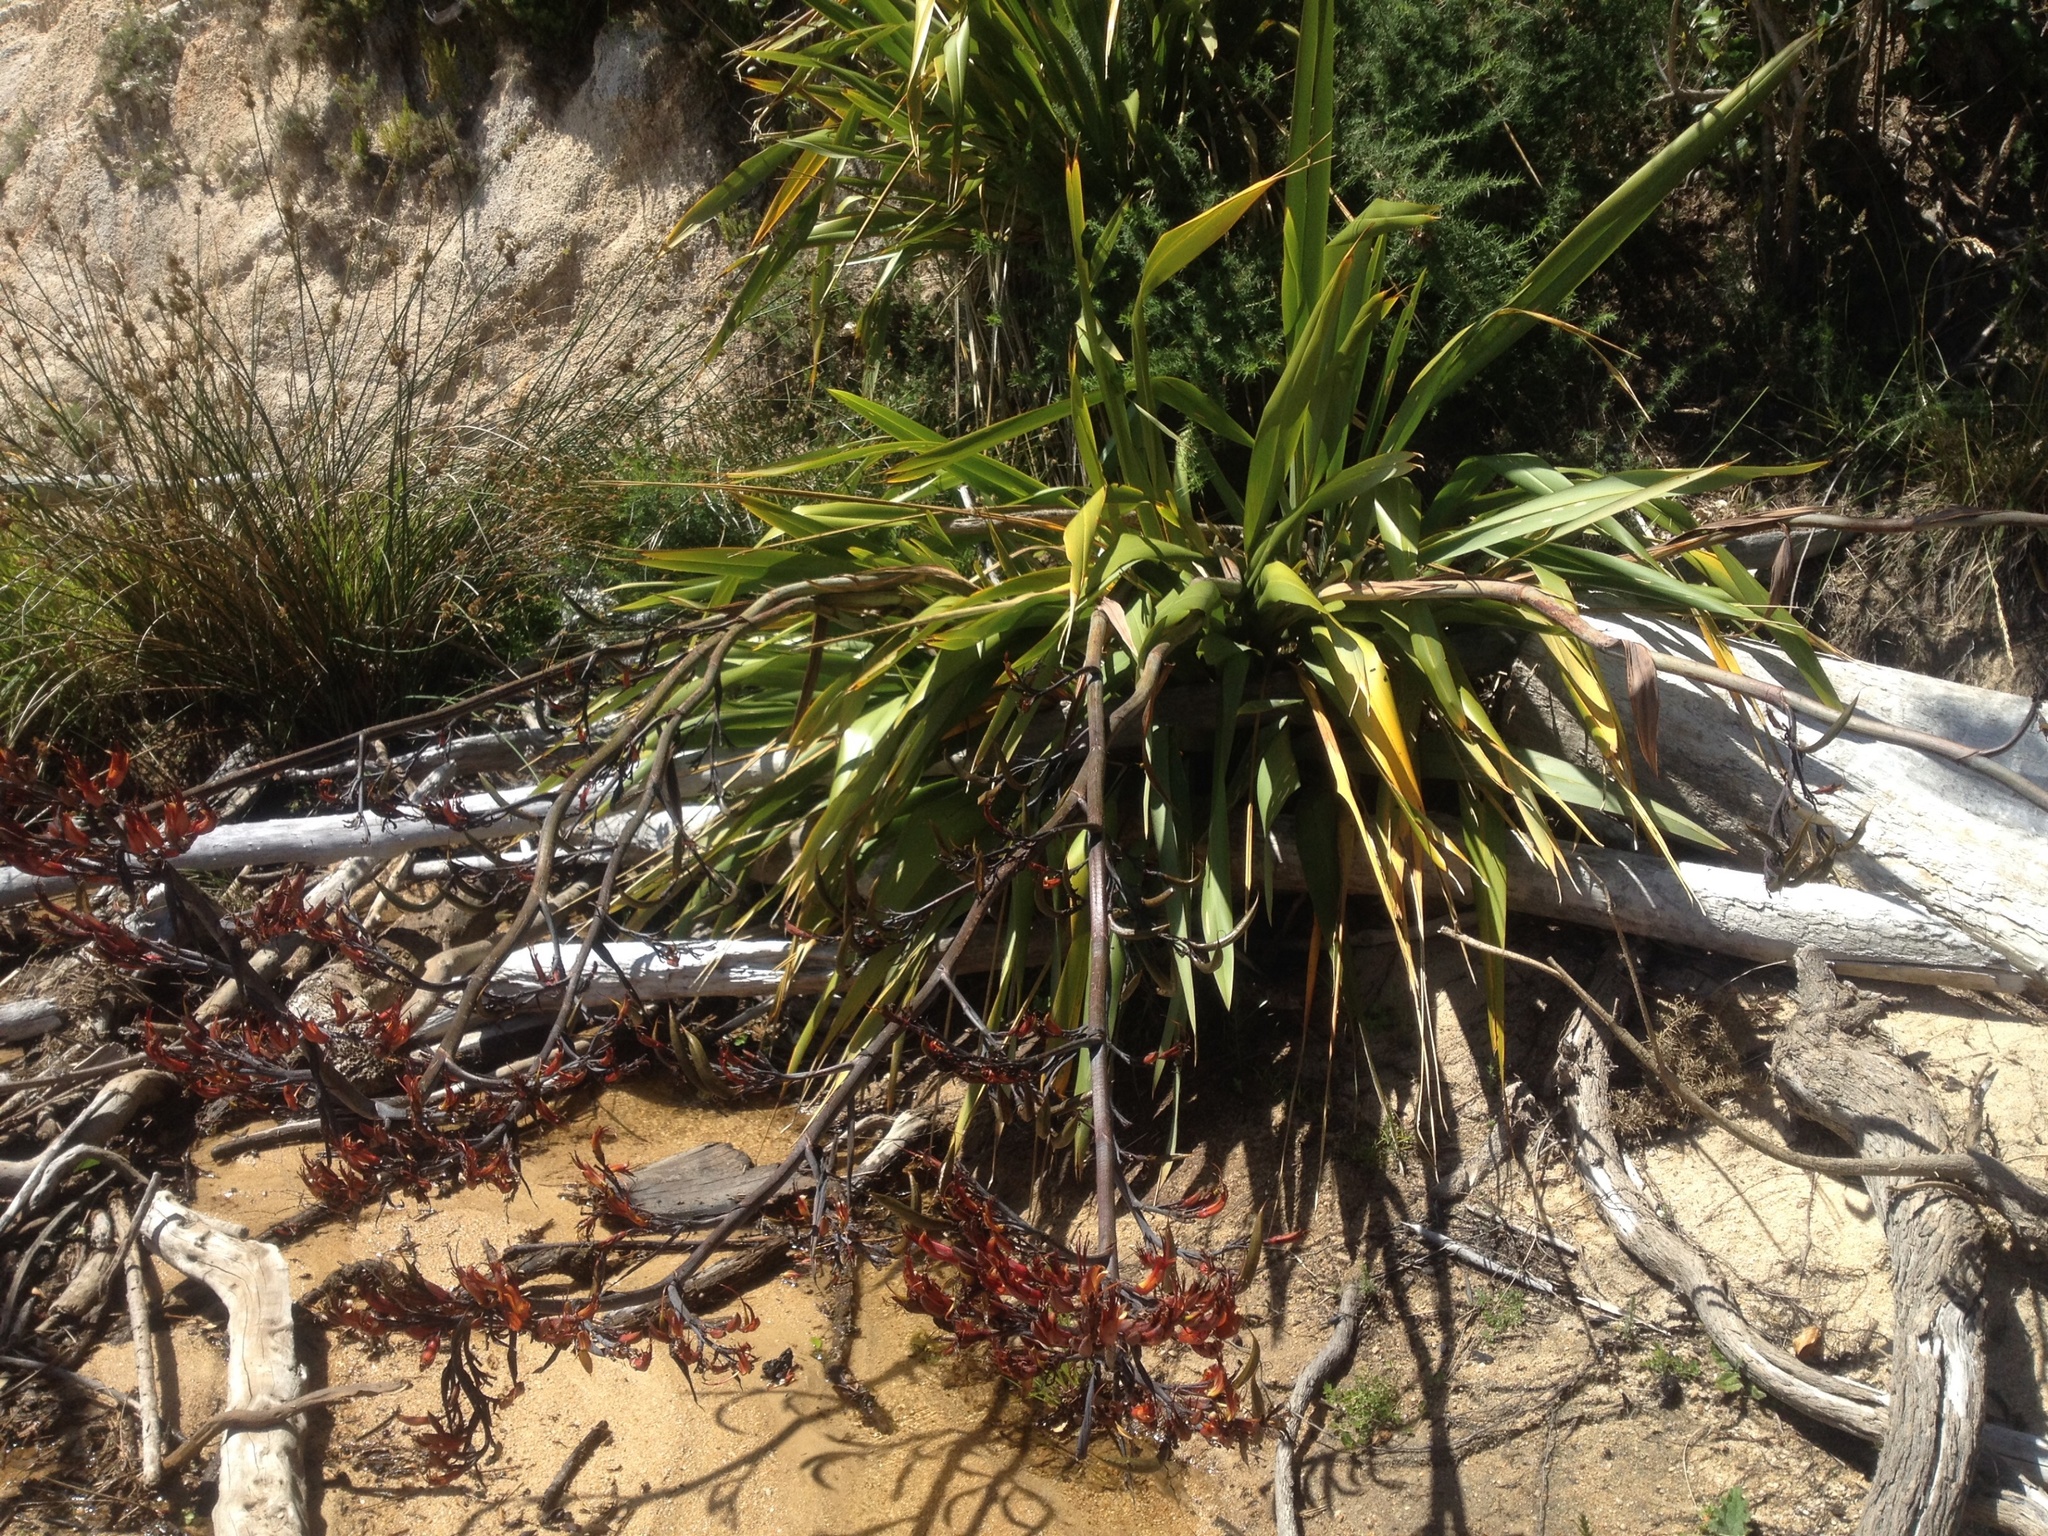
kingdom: Plantae
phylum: Tracheophyta
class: Liliopsida
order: Asparagales
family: Asphodelaceae
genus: Phormium
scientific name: Phormium colensoi
